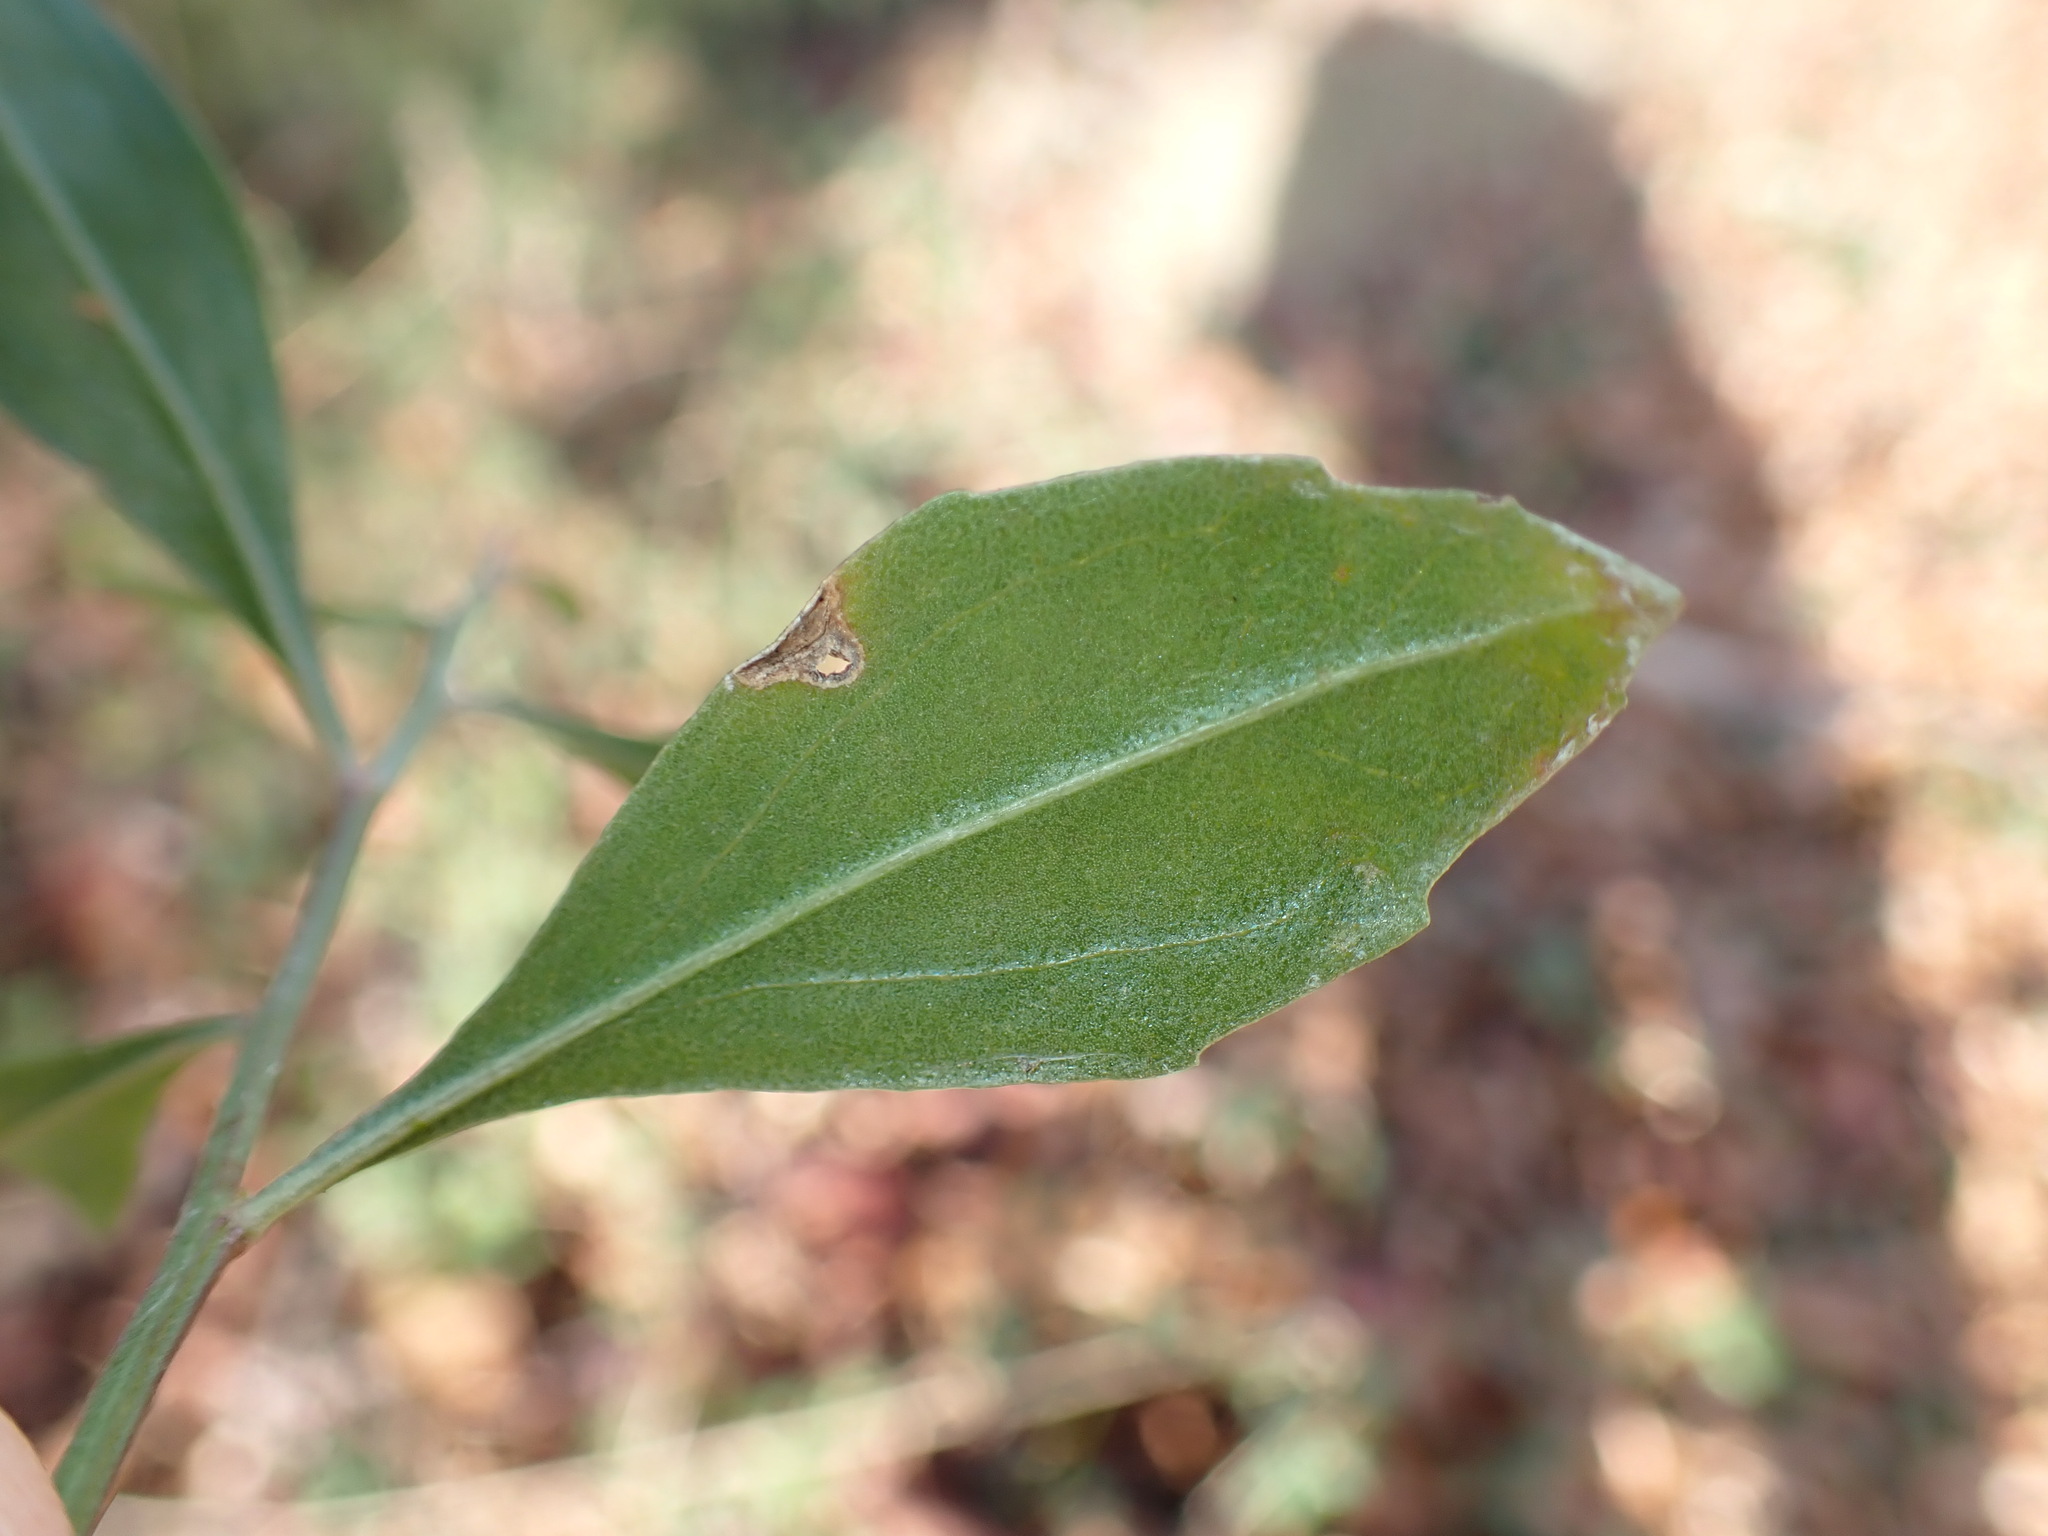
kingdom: Plantae
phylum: Tracheophyta
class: Magnoliopsida
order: Asterales
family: Asteraceae
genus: Baccharis
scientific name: Baccharis halimifolia
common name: Eastern baccharis
